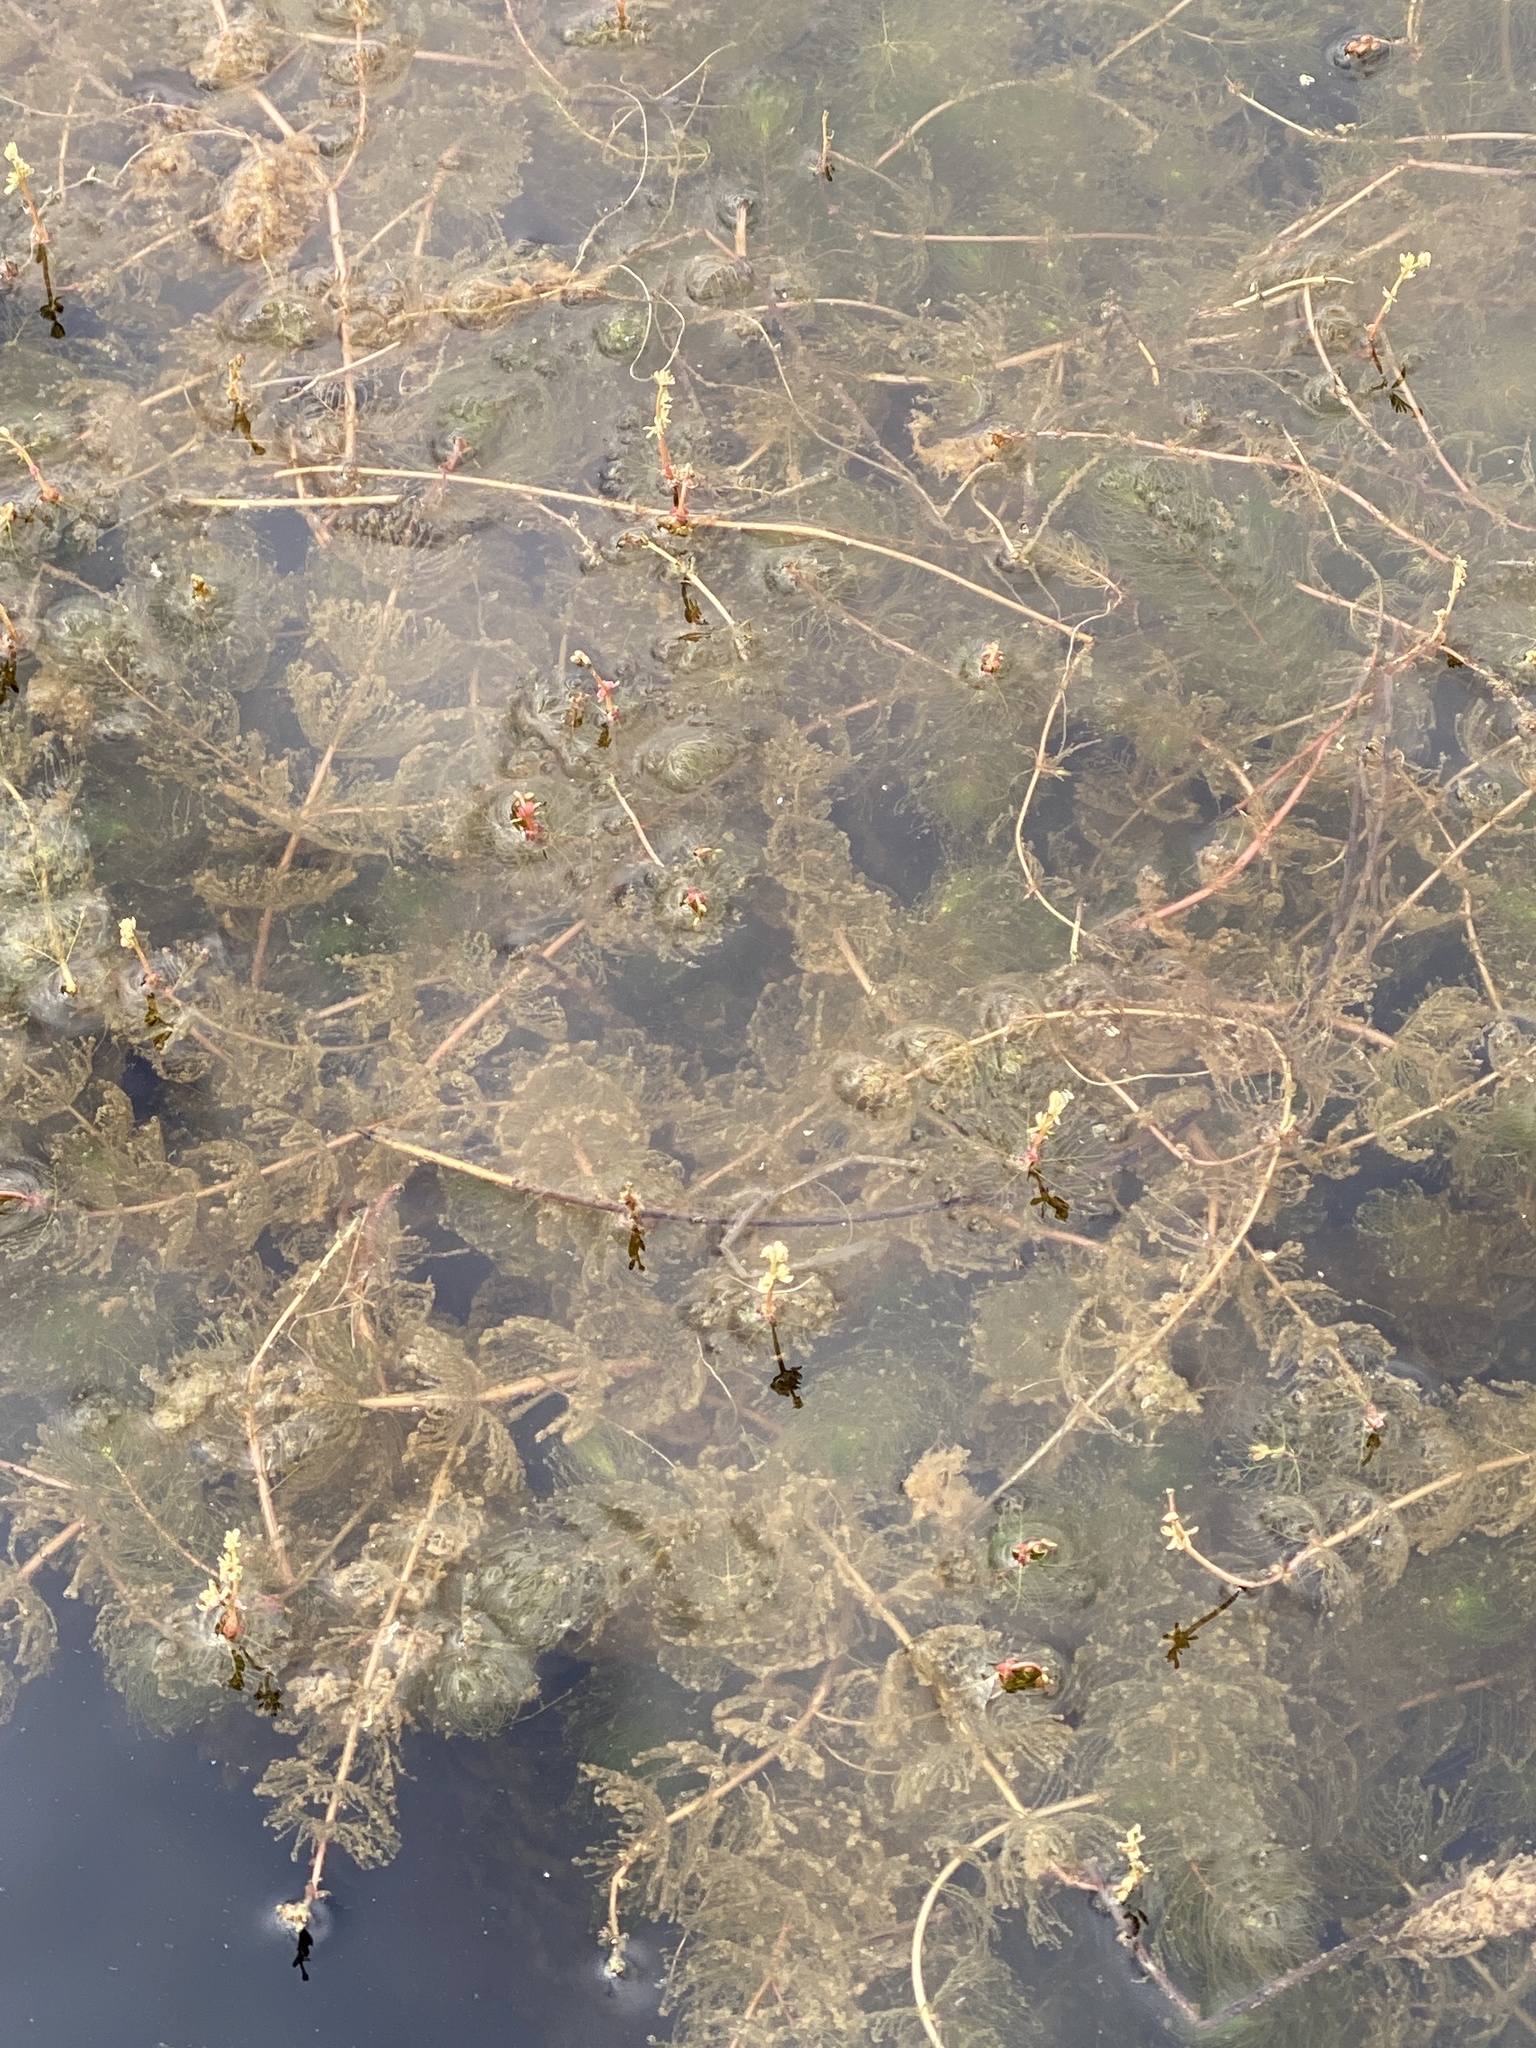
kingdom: Plantae
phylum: Tracheophyta
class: Magnoliopsida
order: Saxifragales
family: Haloragaceae
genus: Myriophyllum
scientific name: Myriophyllum alterniflorum
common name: Alternate water-milfoil
